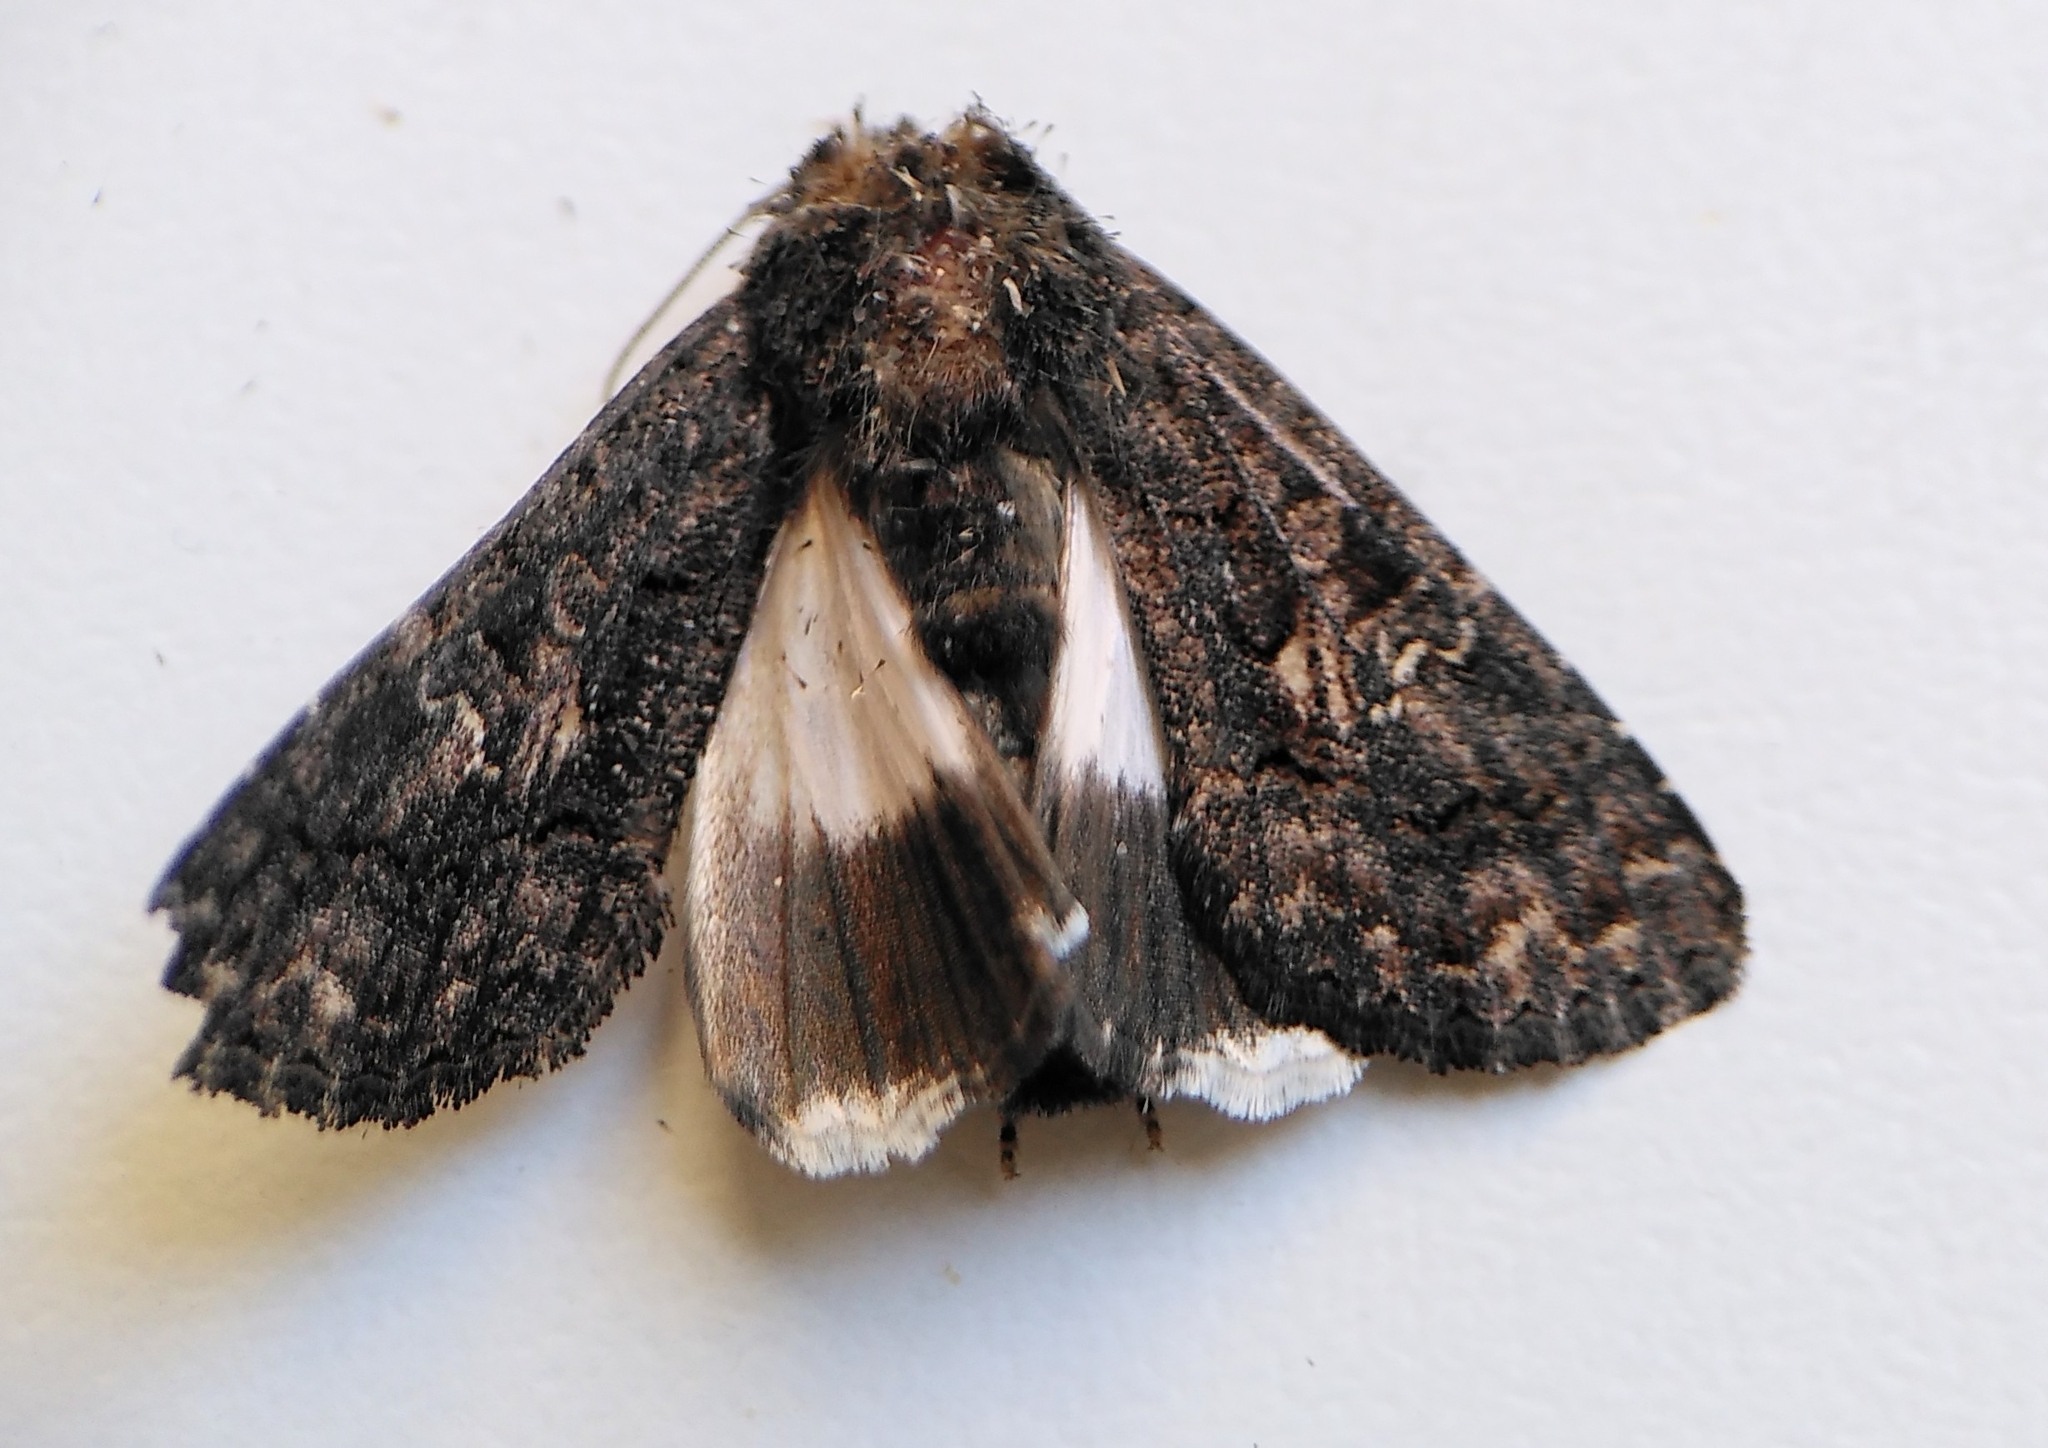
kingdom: Animalia
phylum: Arthropoda
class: Insecta
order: Lepidoptera
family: Noctuidae
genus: Aedia
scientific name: Aedia leucomelas
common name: Sorcerer
